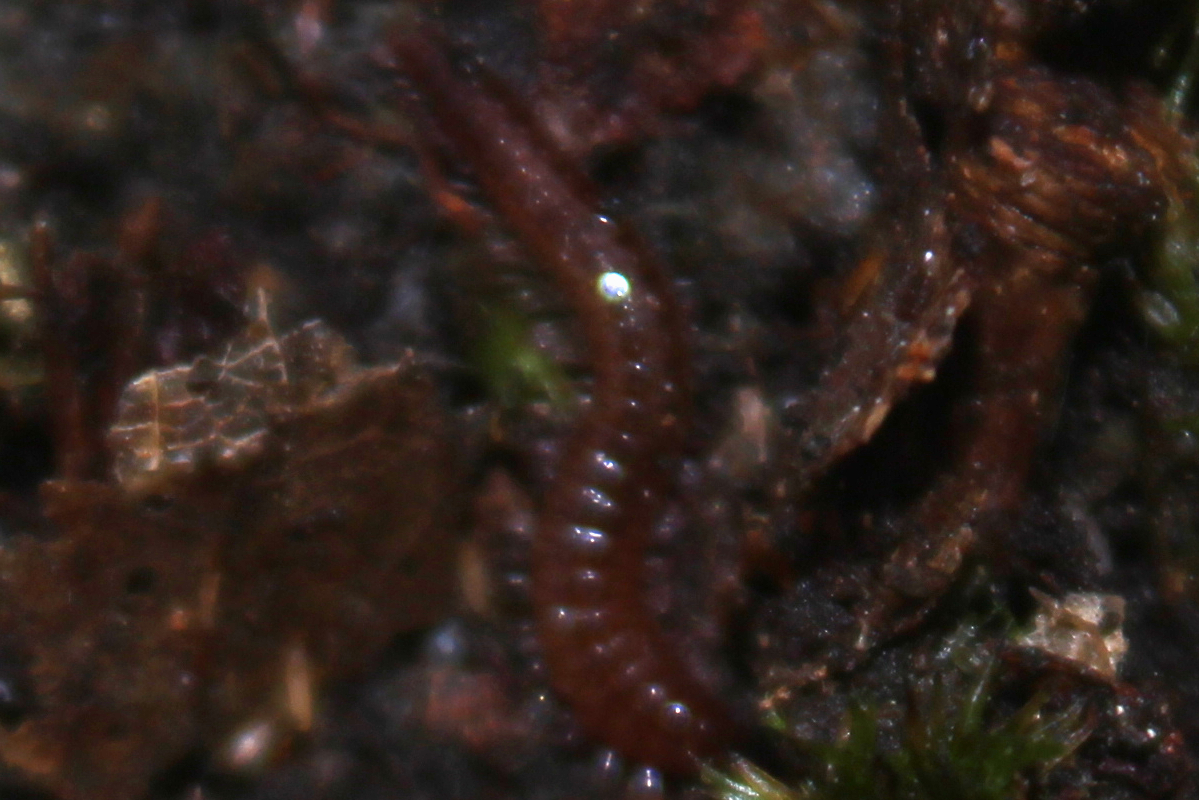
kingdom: Animalia
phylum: Arthropoda
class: Diplopoda
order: Chordeumatida
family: Cleidogonidae
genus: Cleidogona
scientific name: Cleidogona
